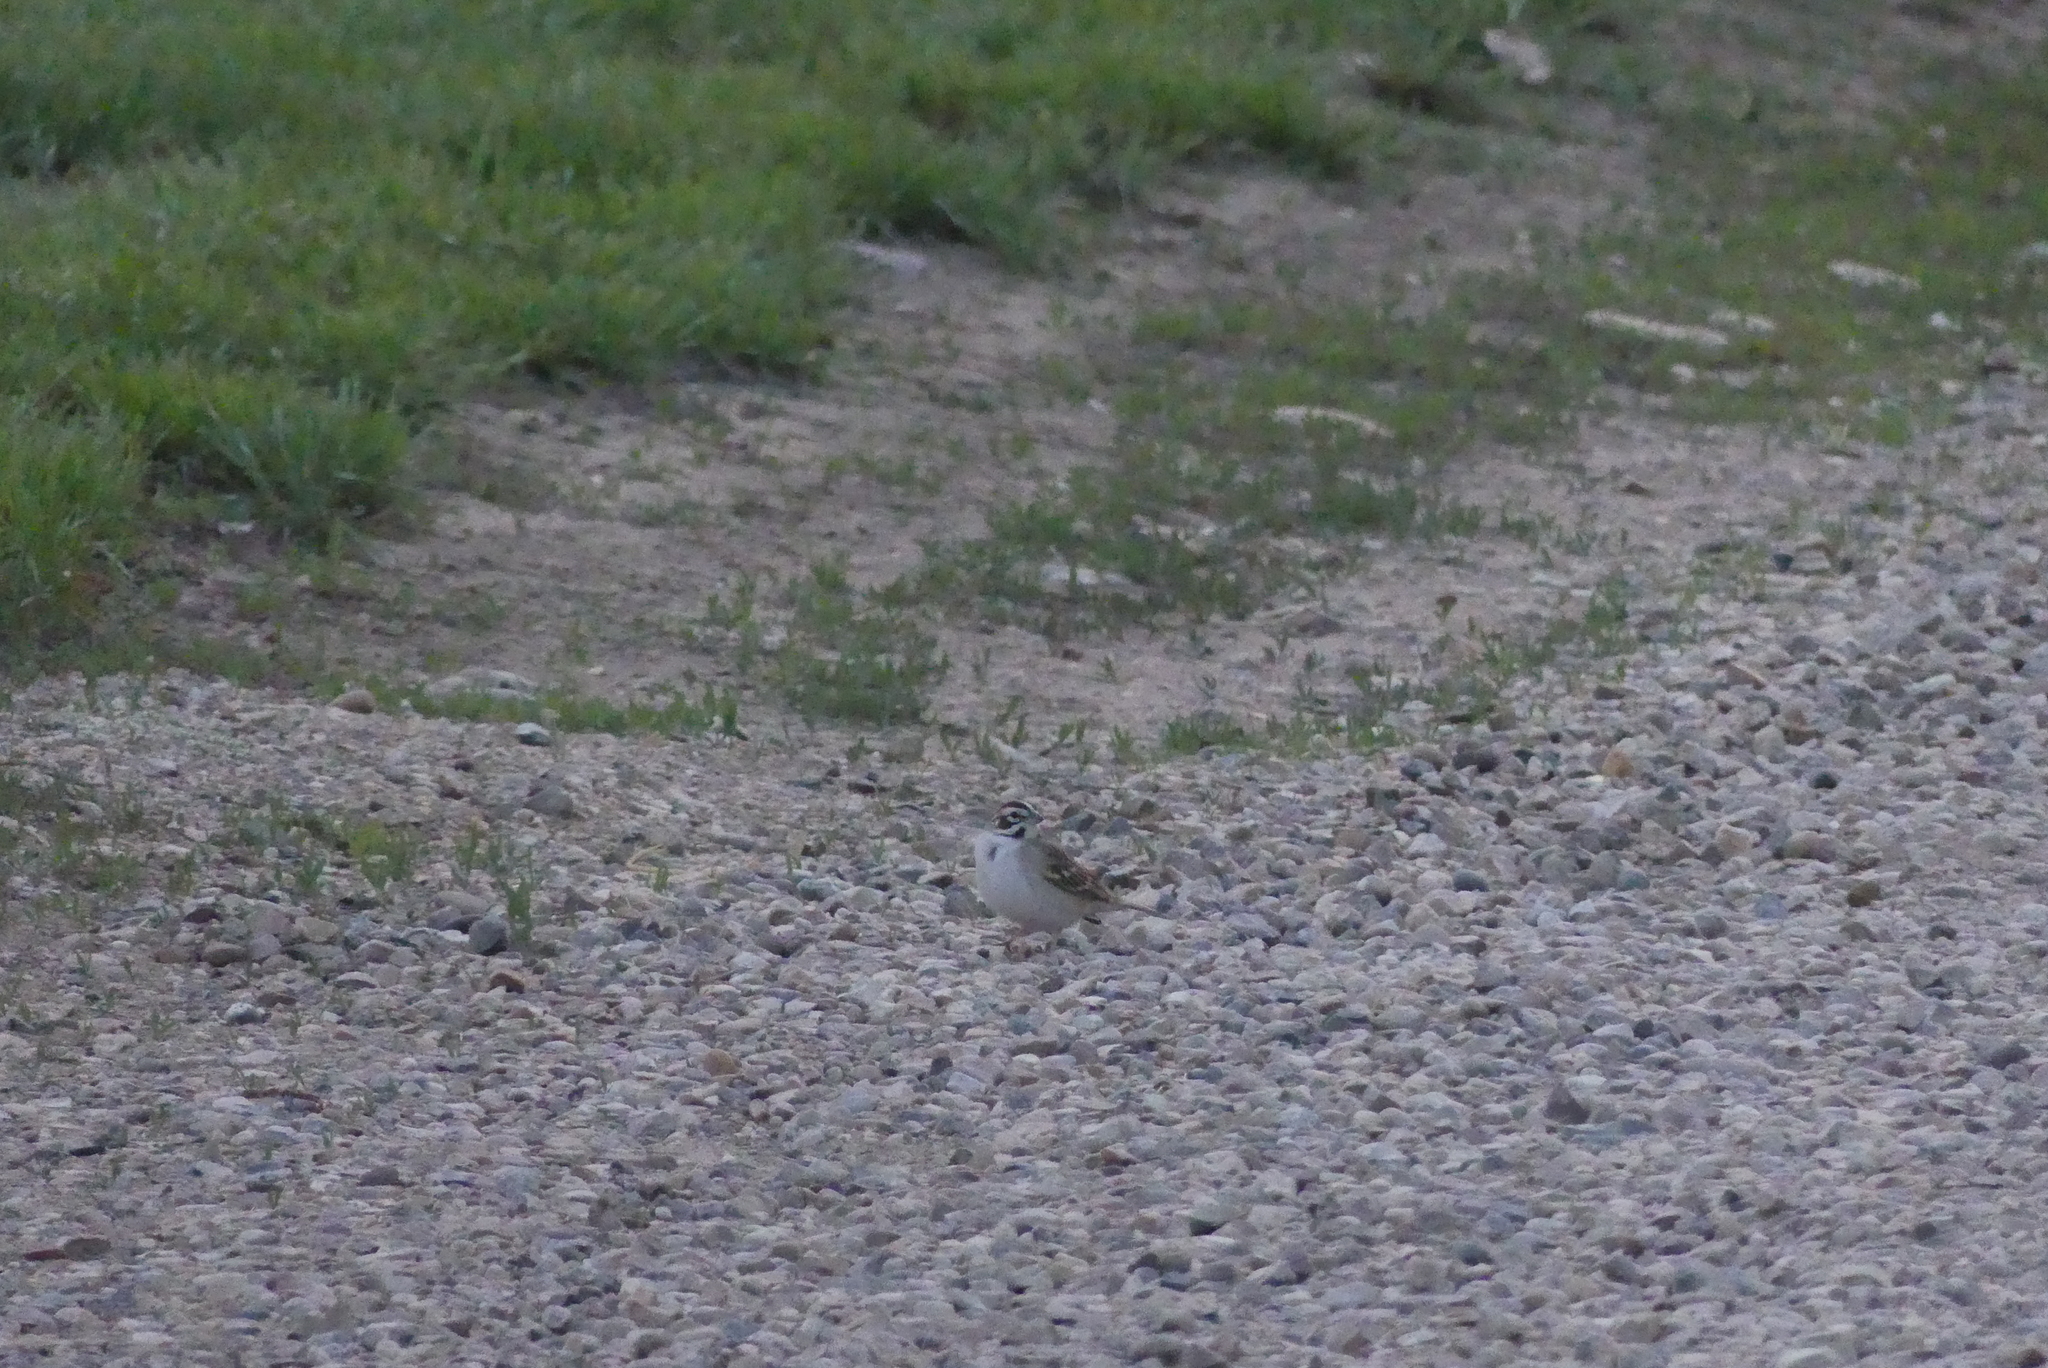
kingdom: Animalia
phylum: Chordata
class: Aves
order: Passeriformes
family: Passerellidae
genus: Chondestes
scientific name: Chondestes grammacus
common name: Lark sparrow
